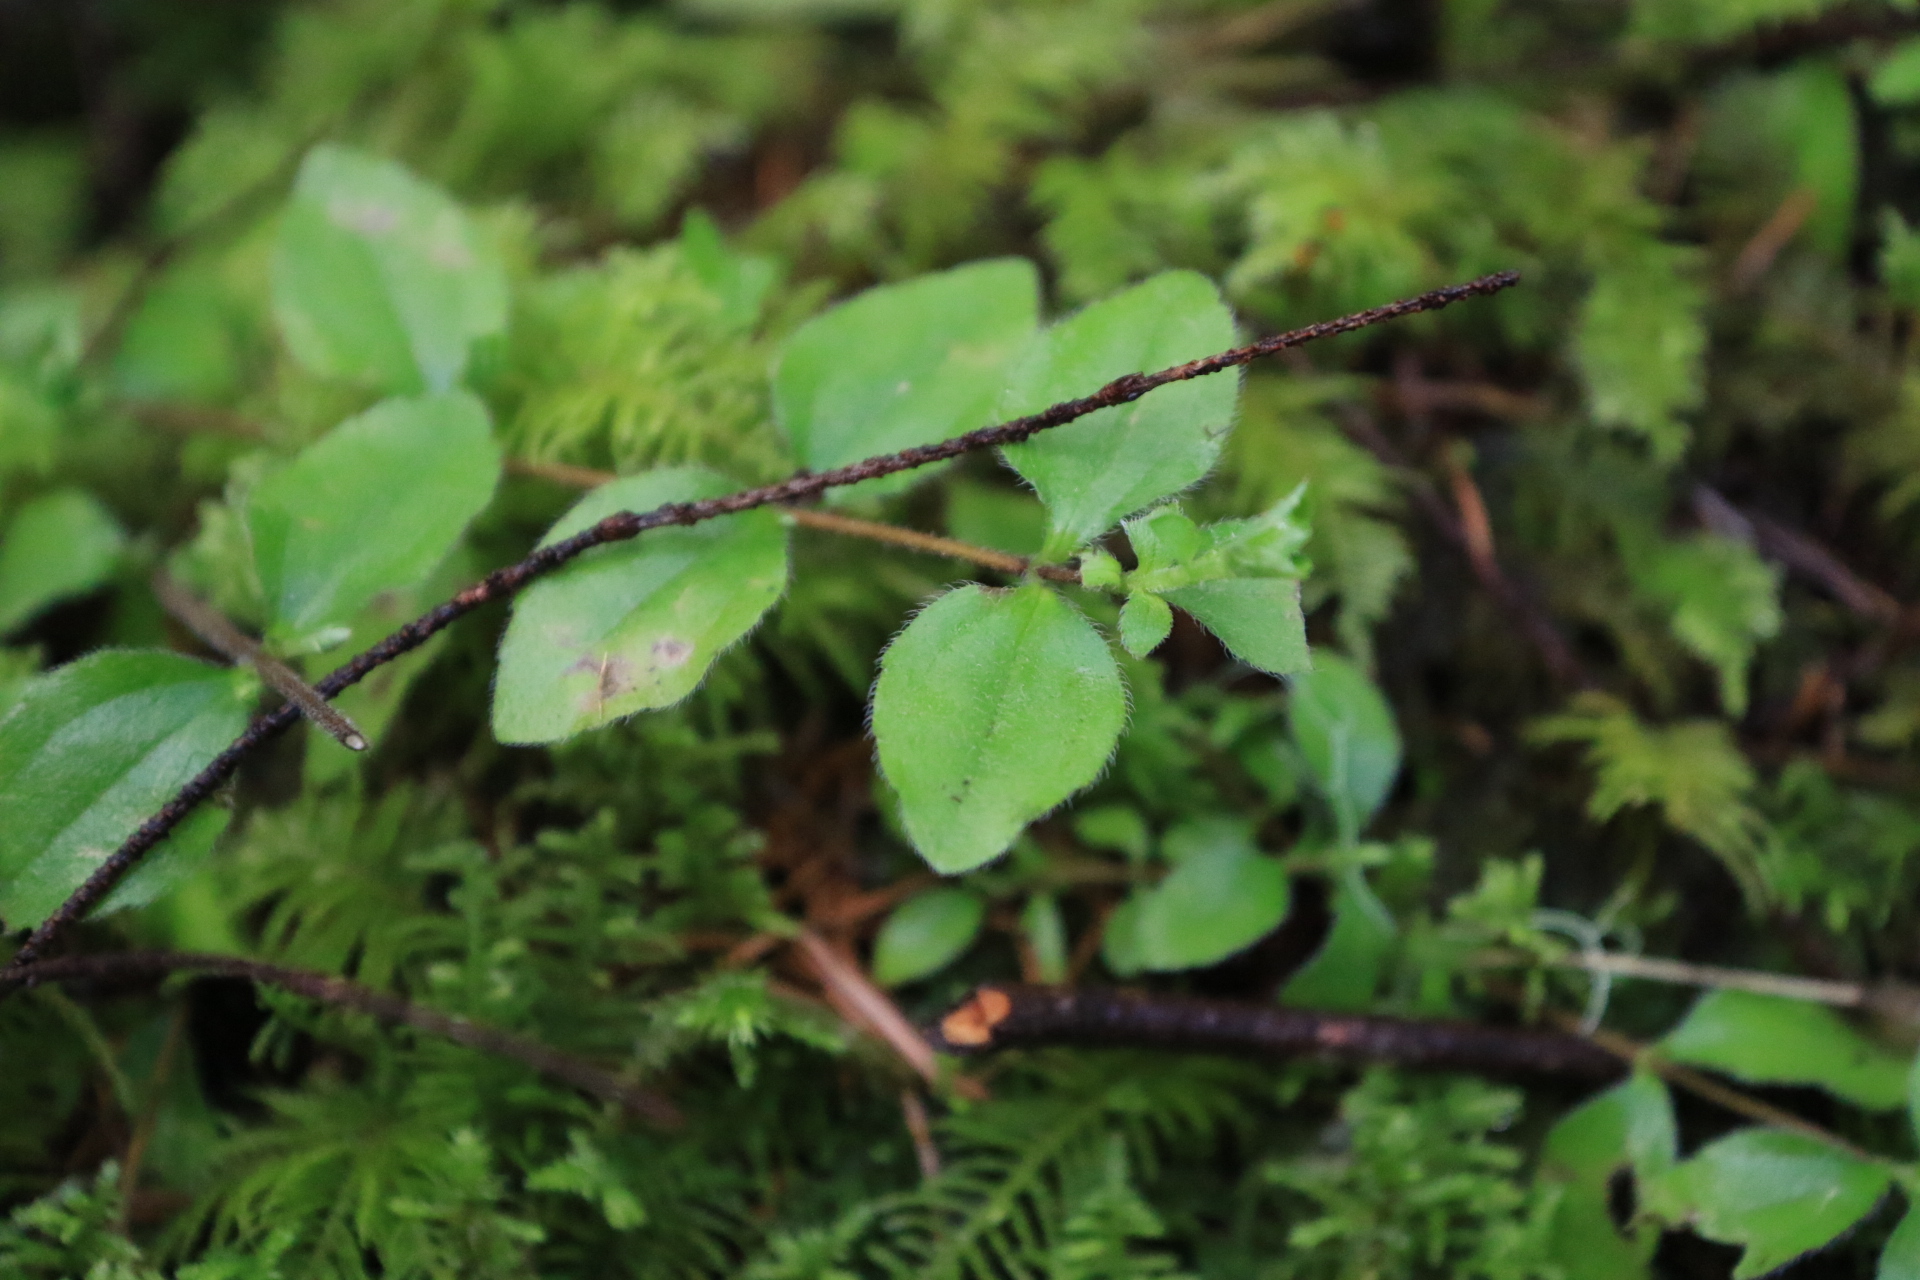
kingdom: Plantae
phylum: Tracheophyta
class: Magnoliopsida
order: Lamiales
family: Lamiaceae
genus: Micromeria
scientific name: Micromeria douglasii
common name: Yerba buena
